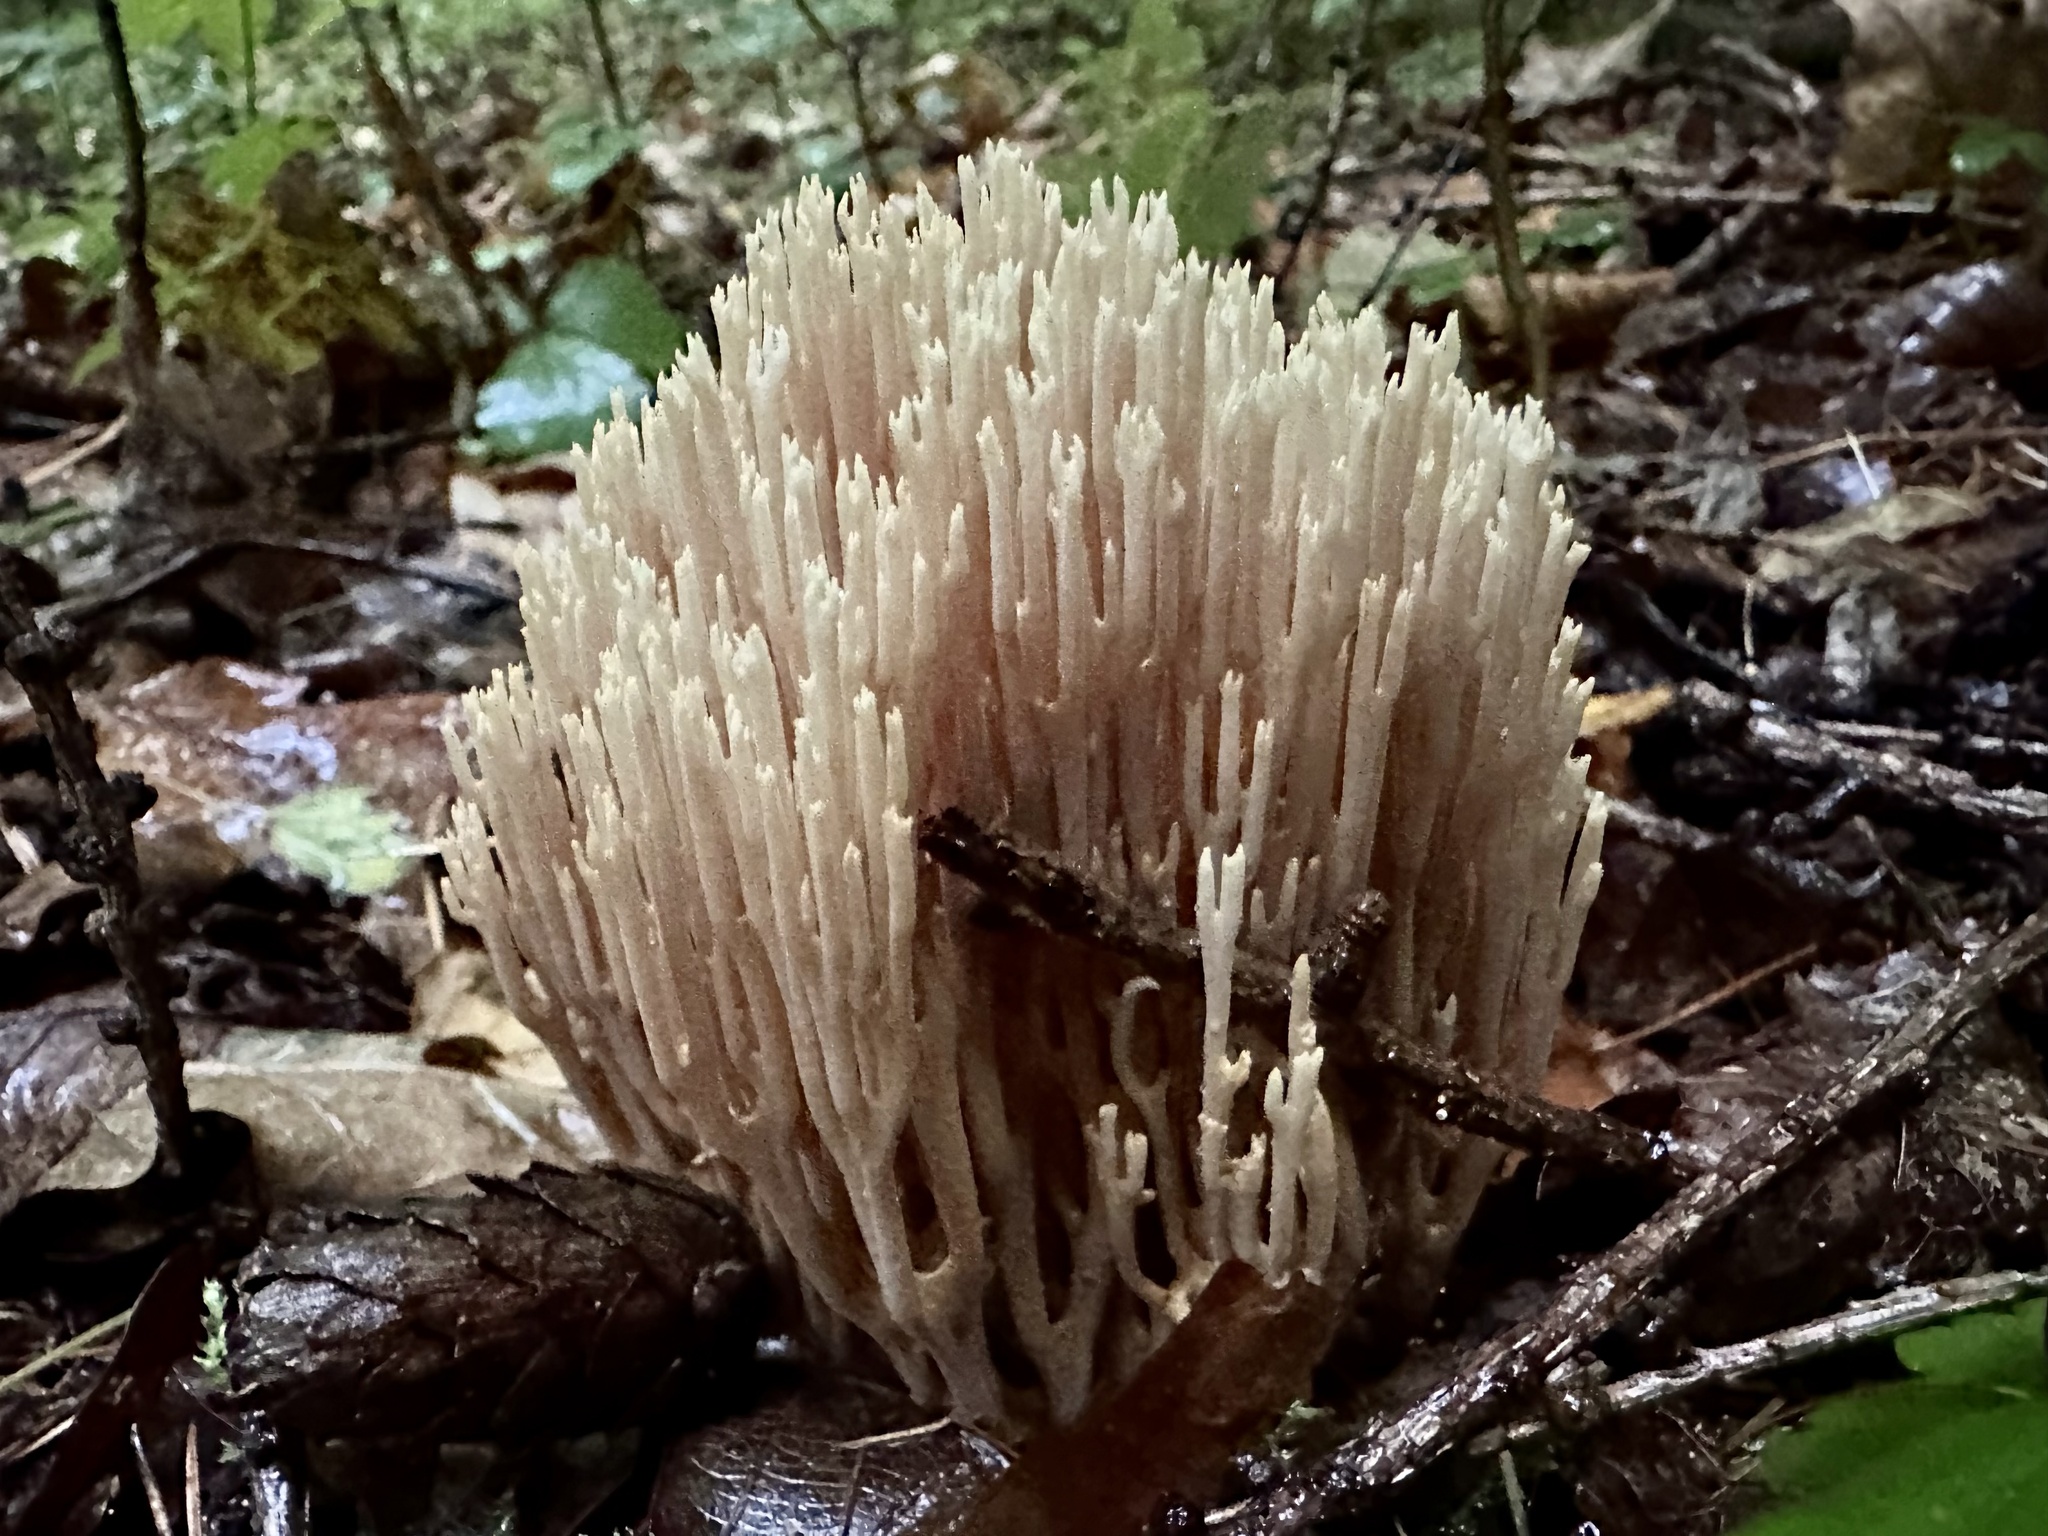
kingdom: Fungi
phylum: Basidiomycota
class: Agaricomycetes
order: Gomphales
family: Gomphaceae
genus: Ramaria
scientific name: Ramaria stricta
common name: Upright coral
